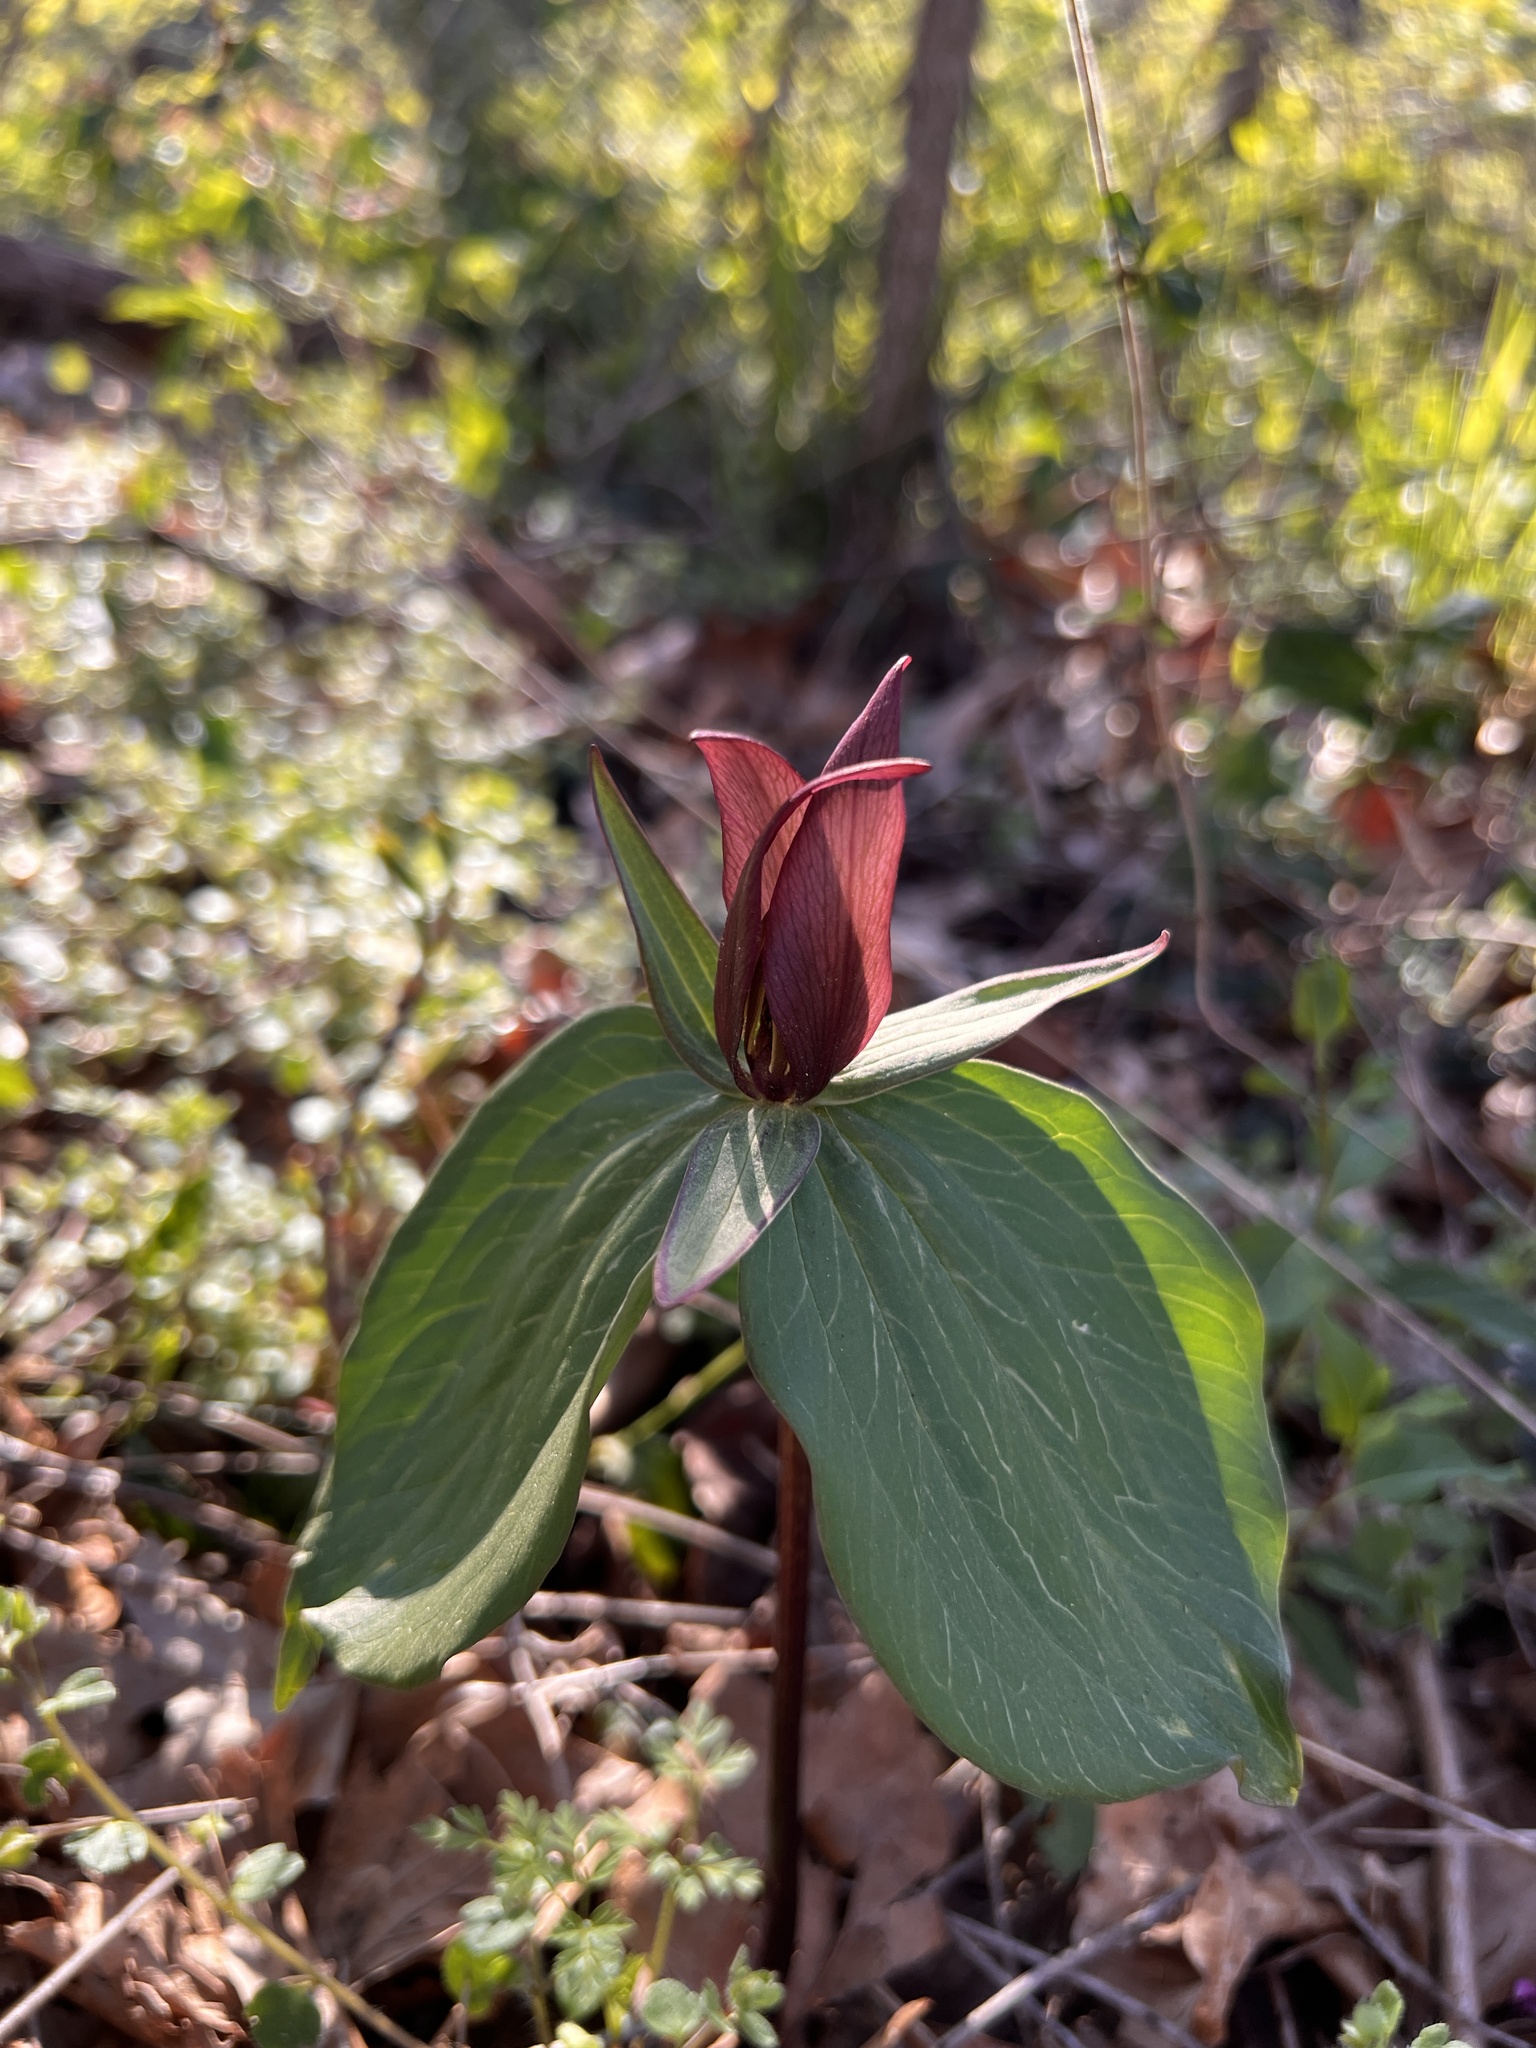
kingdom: Plantae
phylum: Tracheophyta
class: Liliopsida
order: Liliales
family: Melanthiaceae
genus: Trillium
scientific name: Trillium sessile
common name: Sessile trillium
